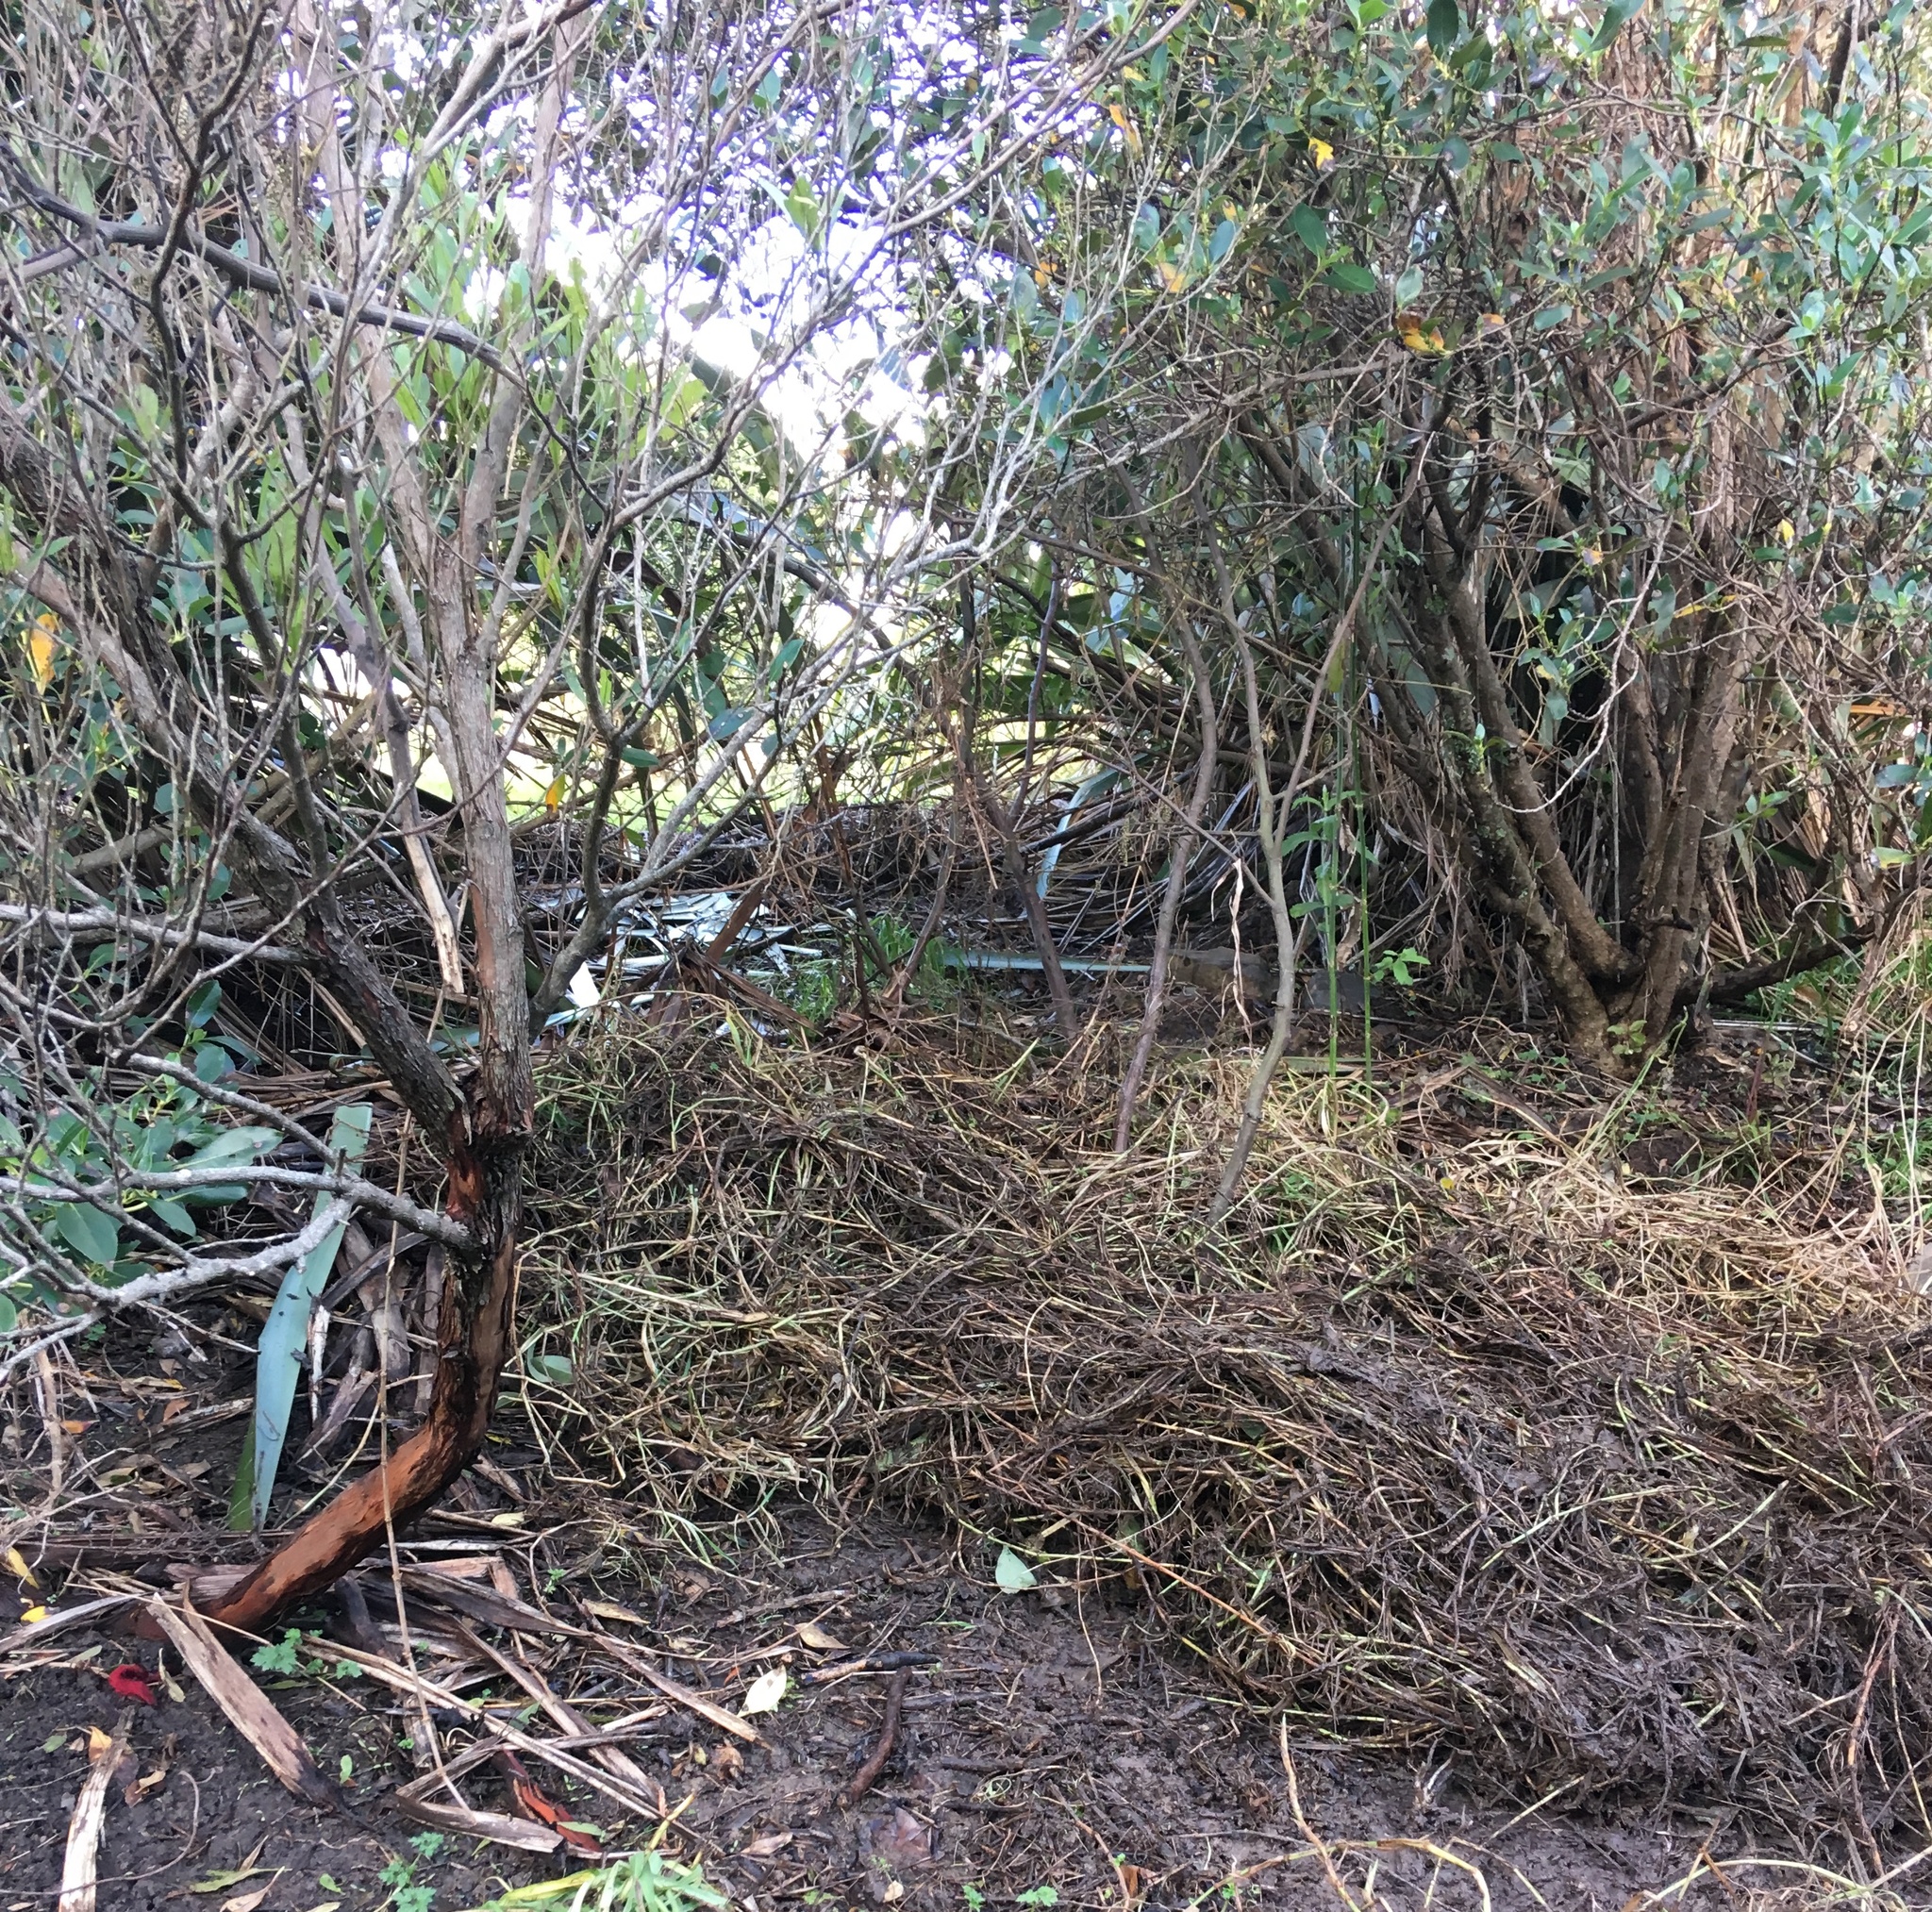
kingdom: Plantae
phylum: Tracheophyta
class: Magnoliopsida
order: Sapindales
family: Sapindaceae
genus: Dodonaea
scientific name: Dodonaea viscosa
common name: Hopbush
